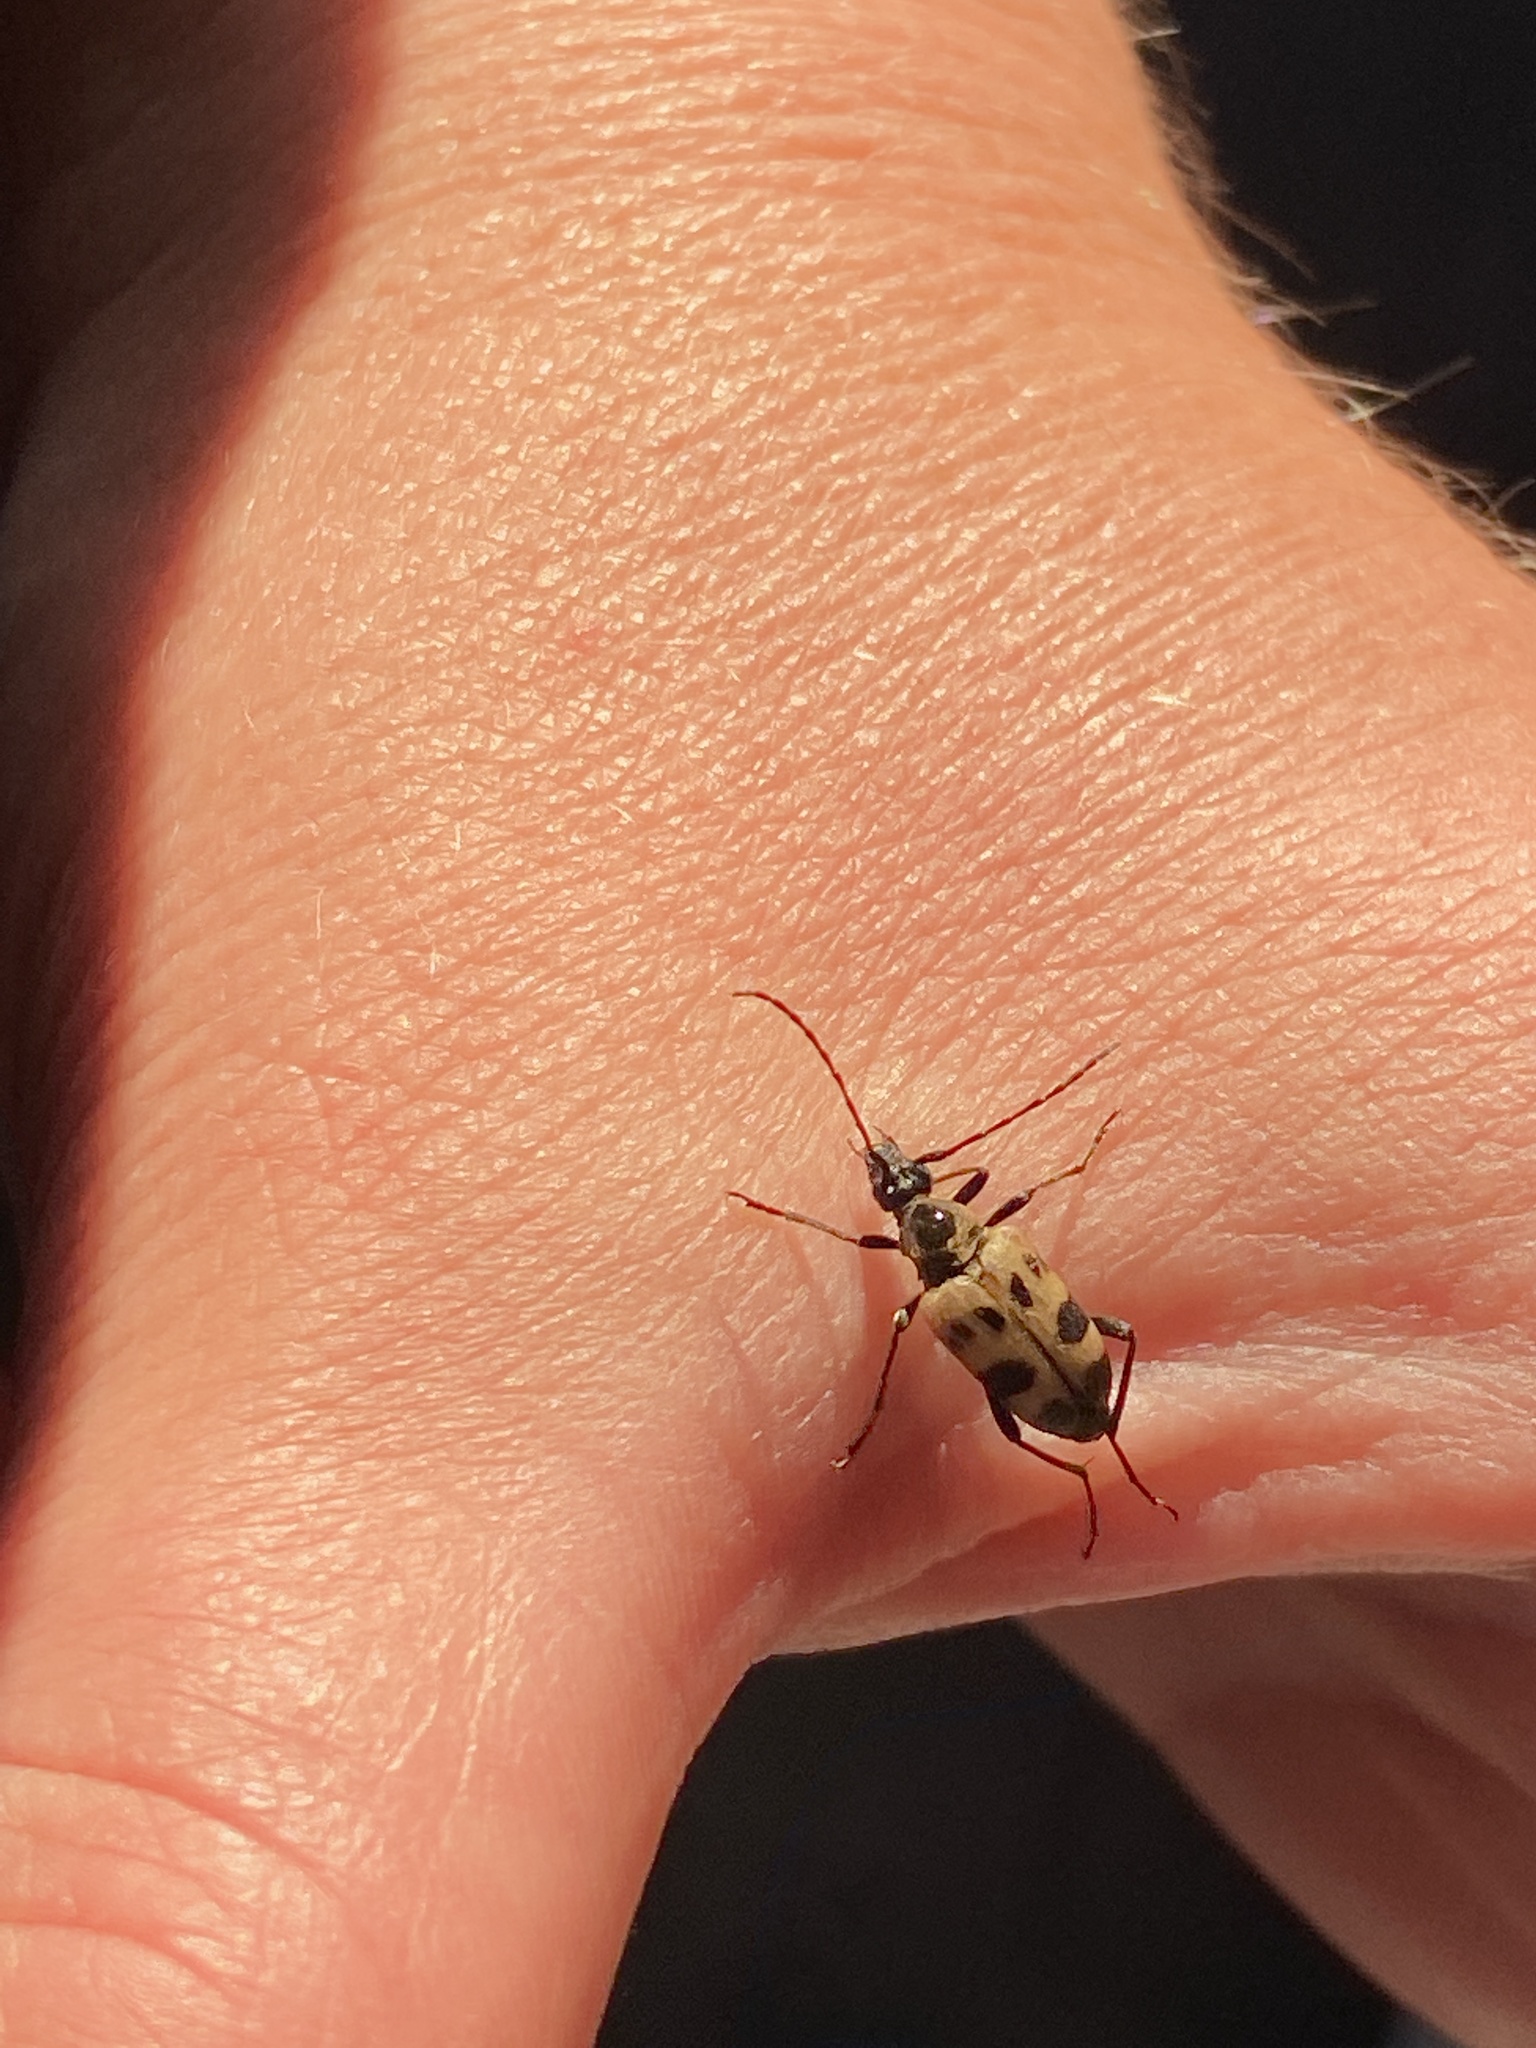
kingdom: Animalia
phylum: Arthropoda
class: Insecta
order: Coleoptera
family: Cerambycidae
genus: Pachytodes
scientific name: Pachytodes cerambyciformis
